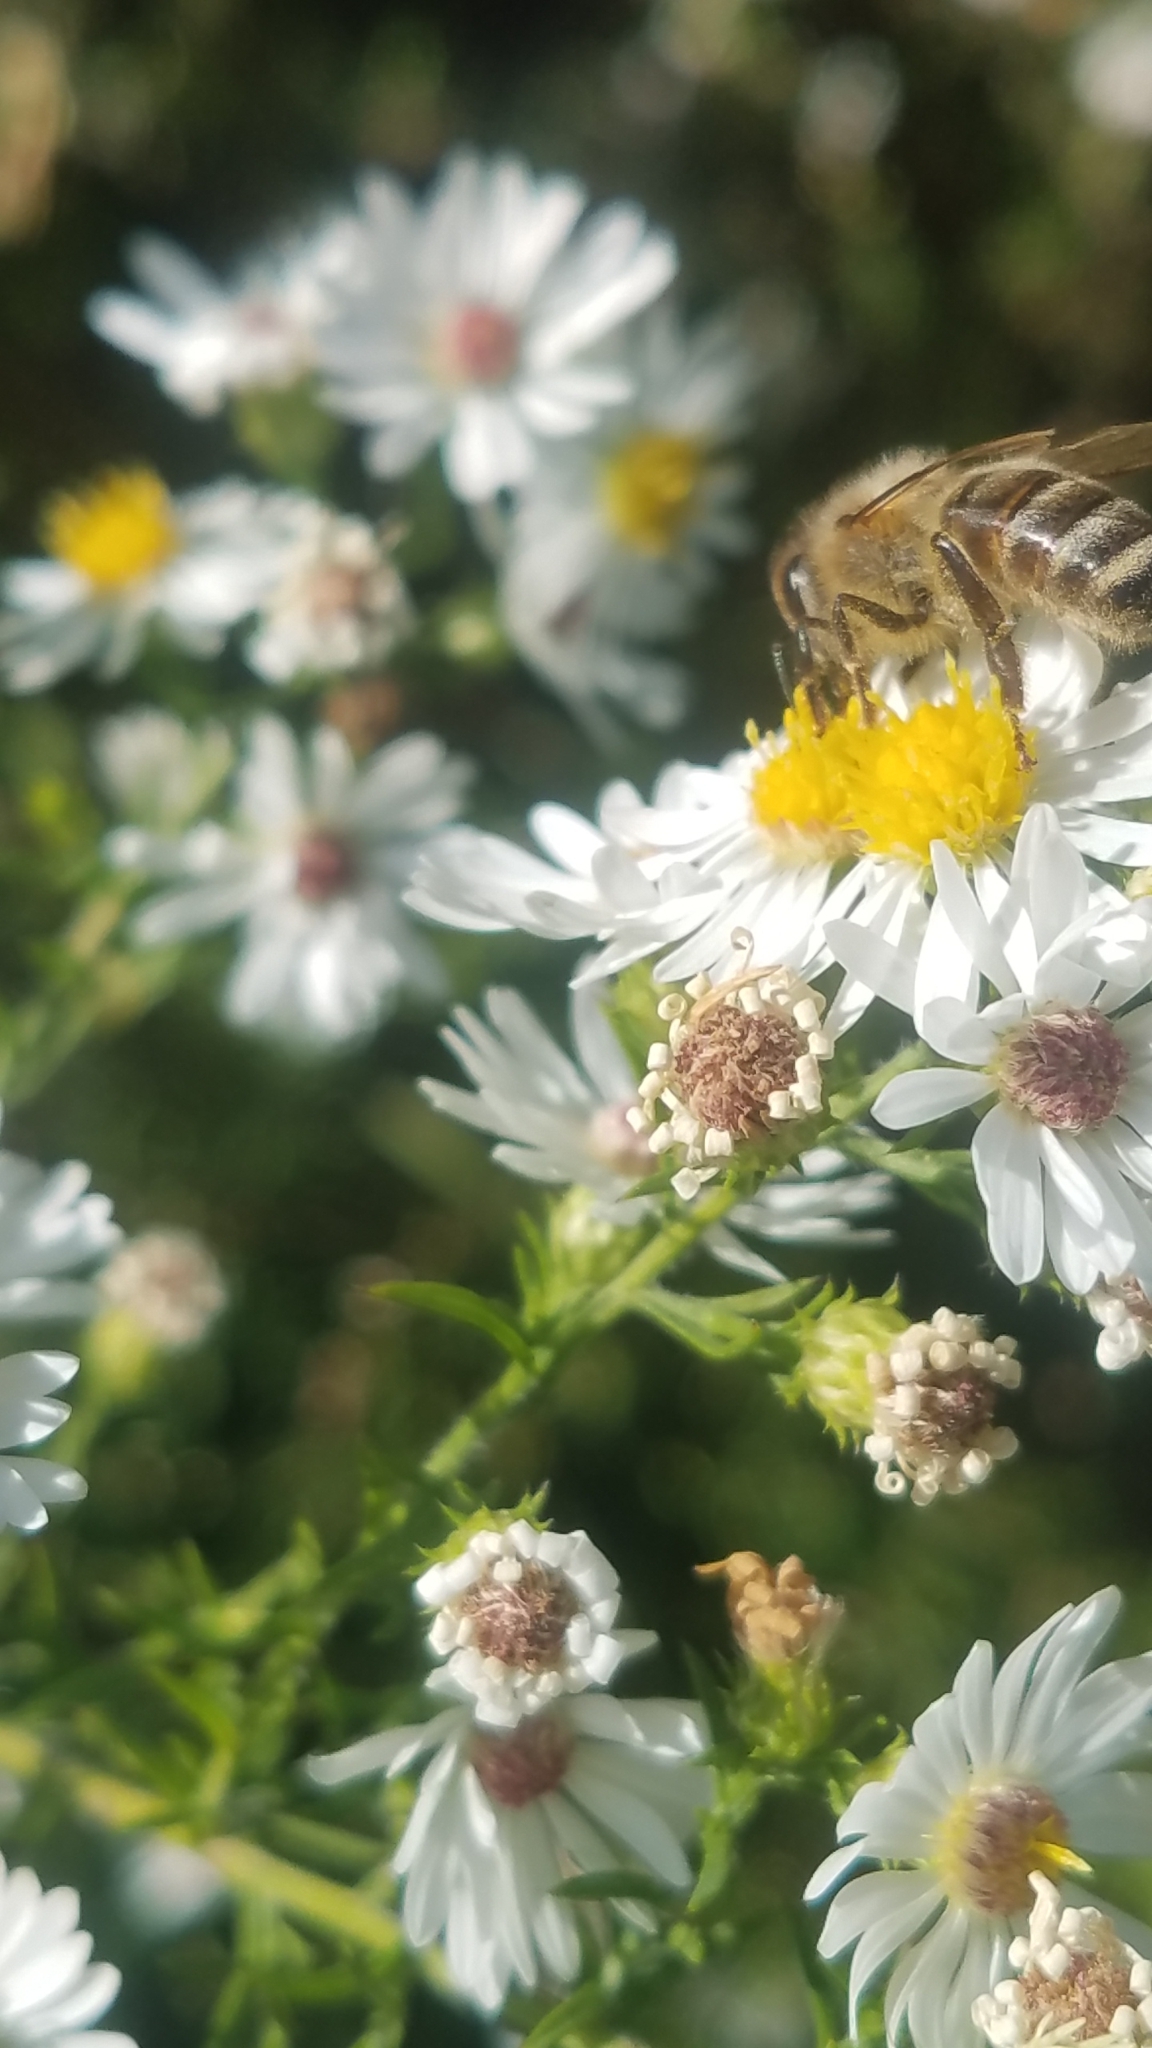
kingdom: Animalia
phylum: Arthropoda
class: Insecta
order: Hymenoptera
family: Apidae
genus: Apis
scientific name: Apis mellifera
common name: Honey bee
